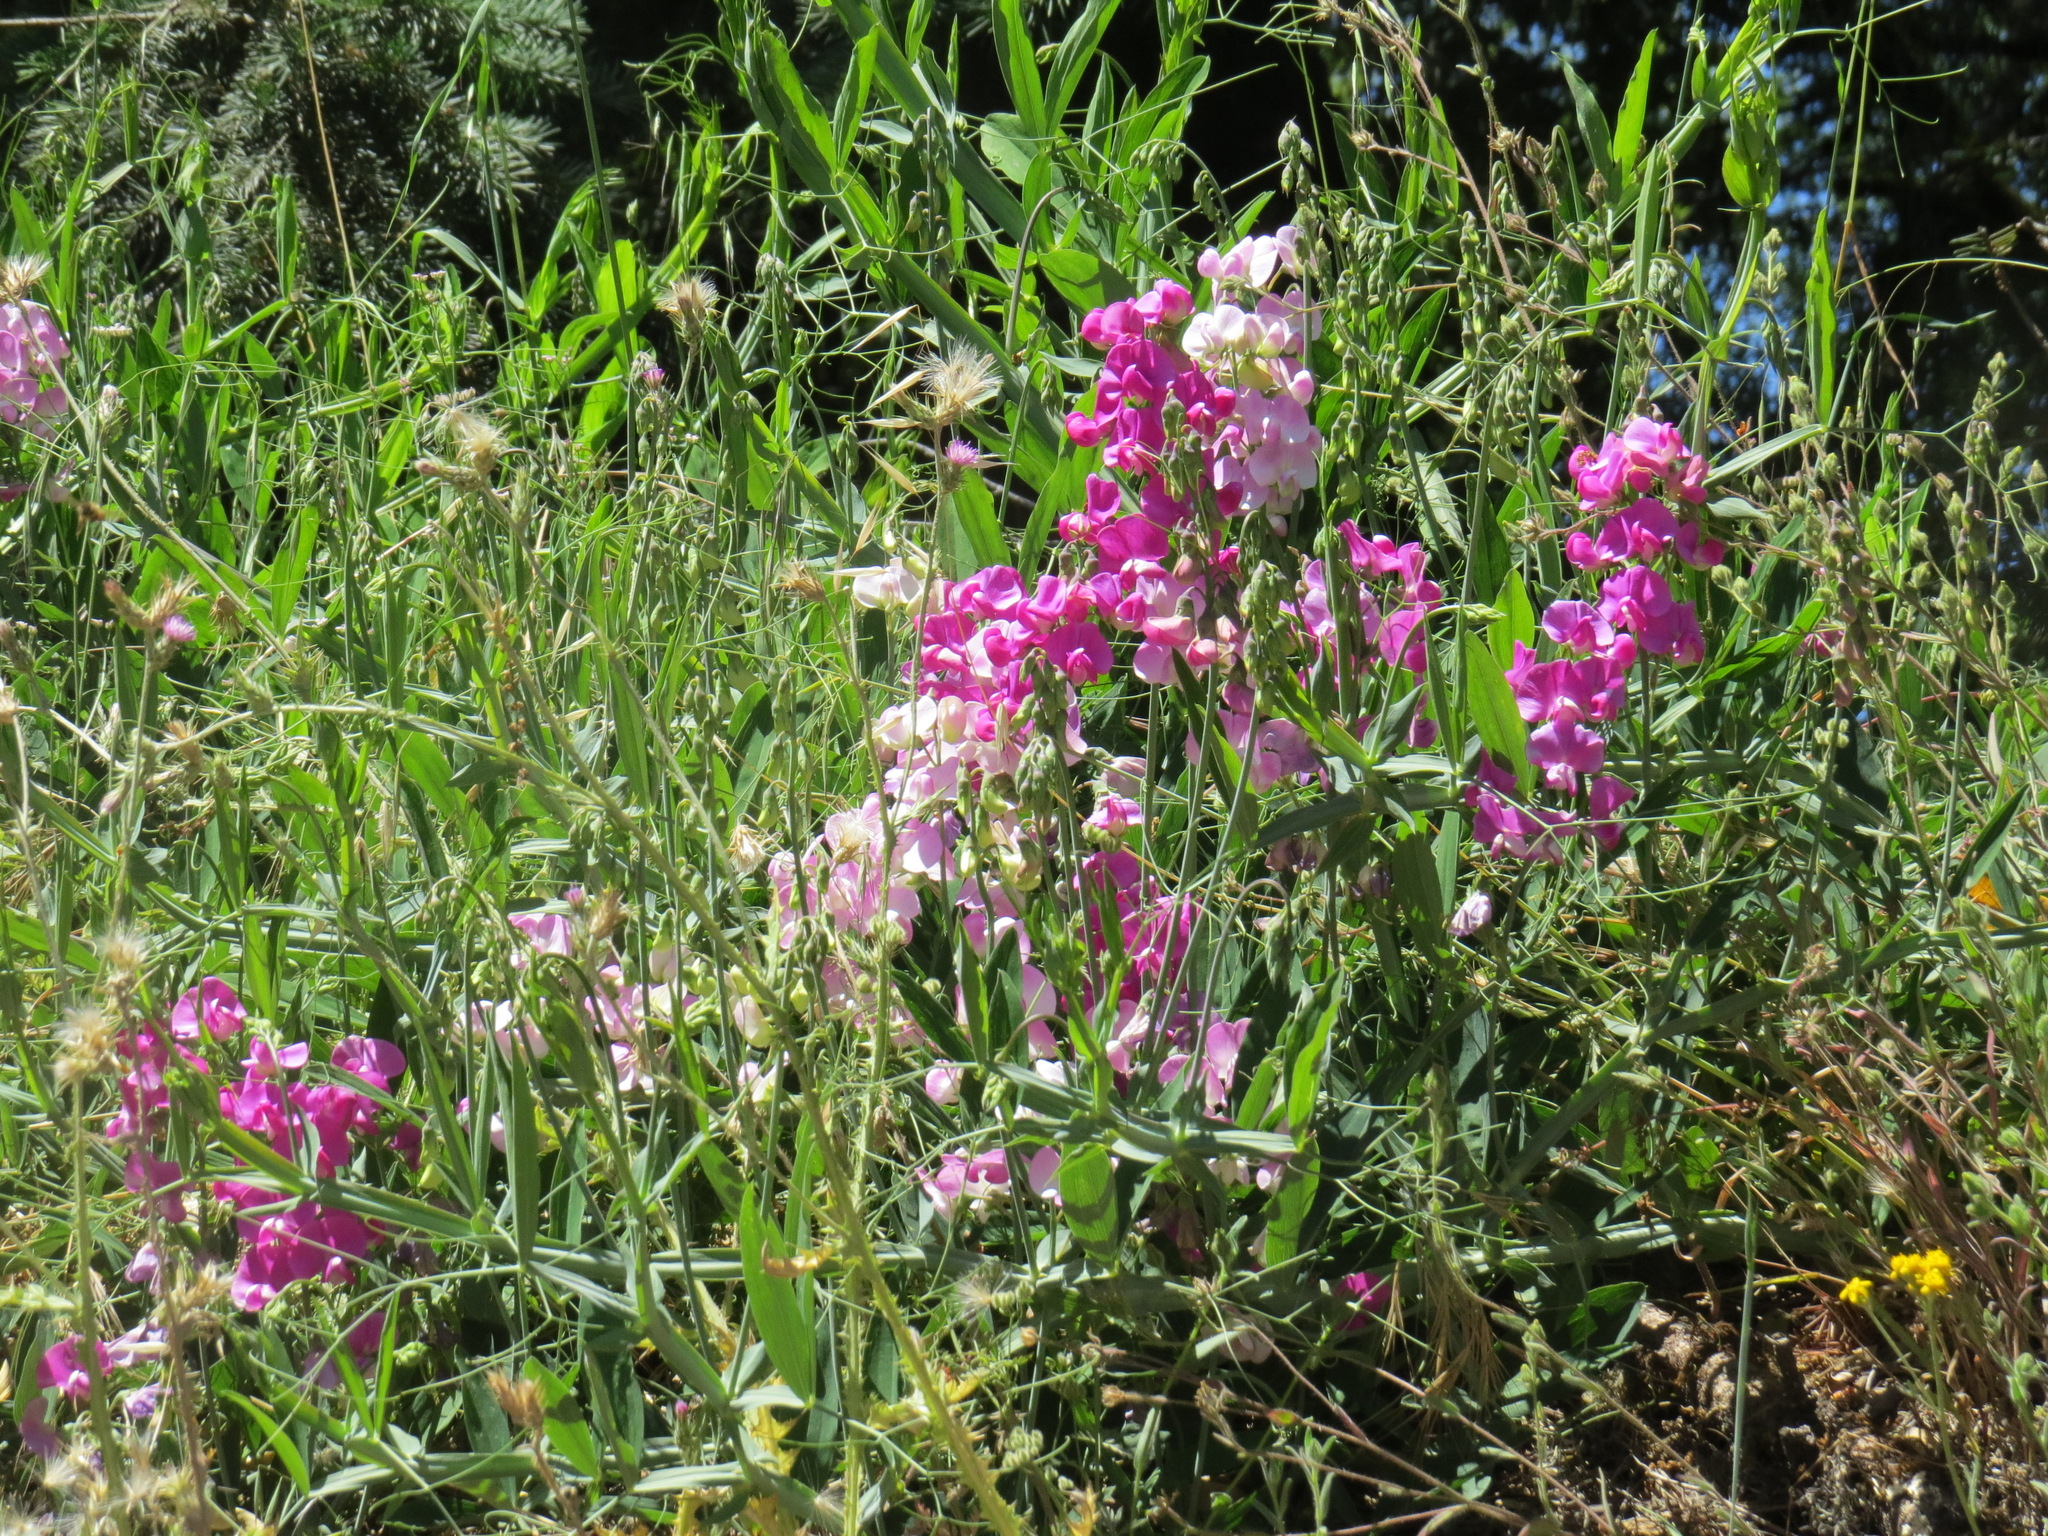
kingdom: Plantae
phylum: Tracheophyta
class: Magnoliopsida
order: Fabales
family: Fabaceae
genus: Lathyrus
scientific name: Lathyrus latifolius
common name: Perennial pea
